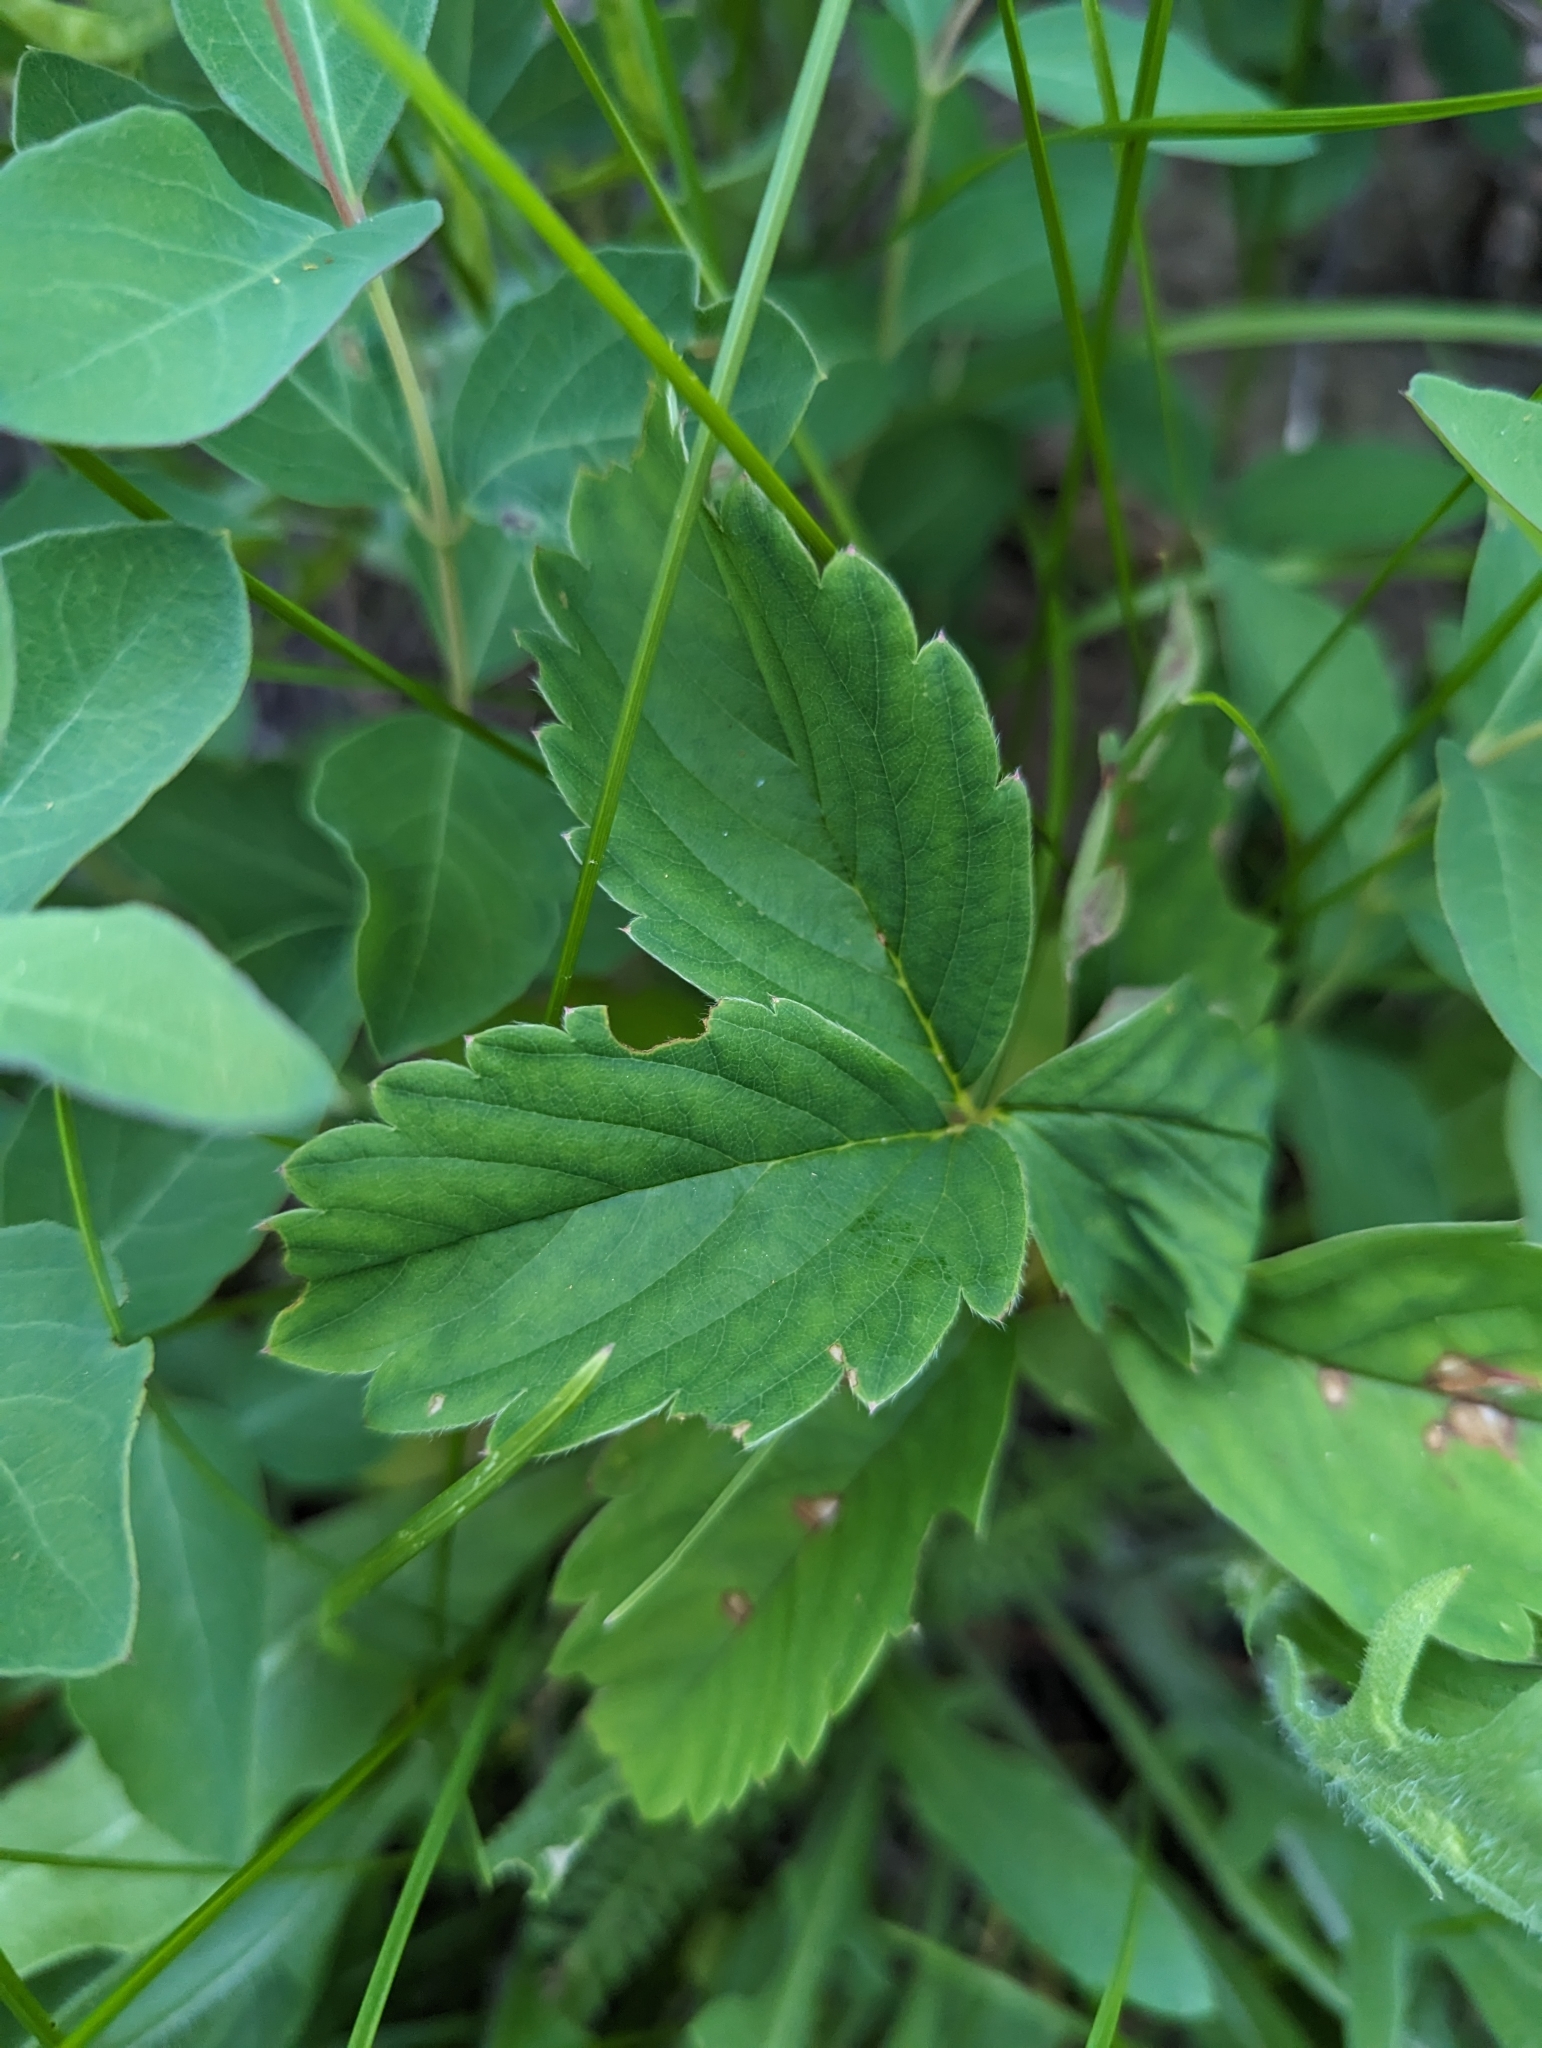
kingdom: Plantae
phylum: Tracheophyta
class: Magnoliopsida
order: Rosales
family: Rosaceae
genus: Fragaria
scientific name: Fragaria virginiana
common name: Thickleaved wild strawberry
